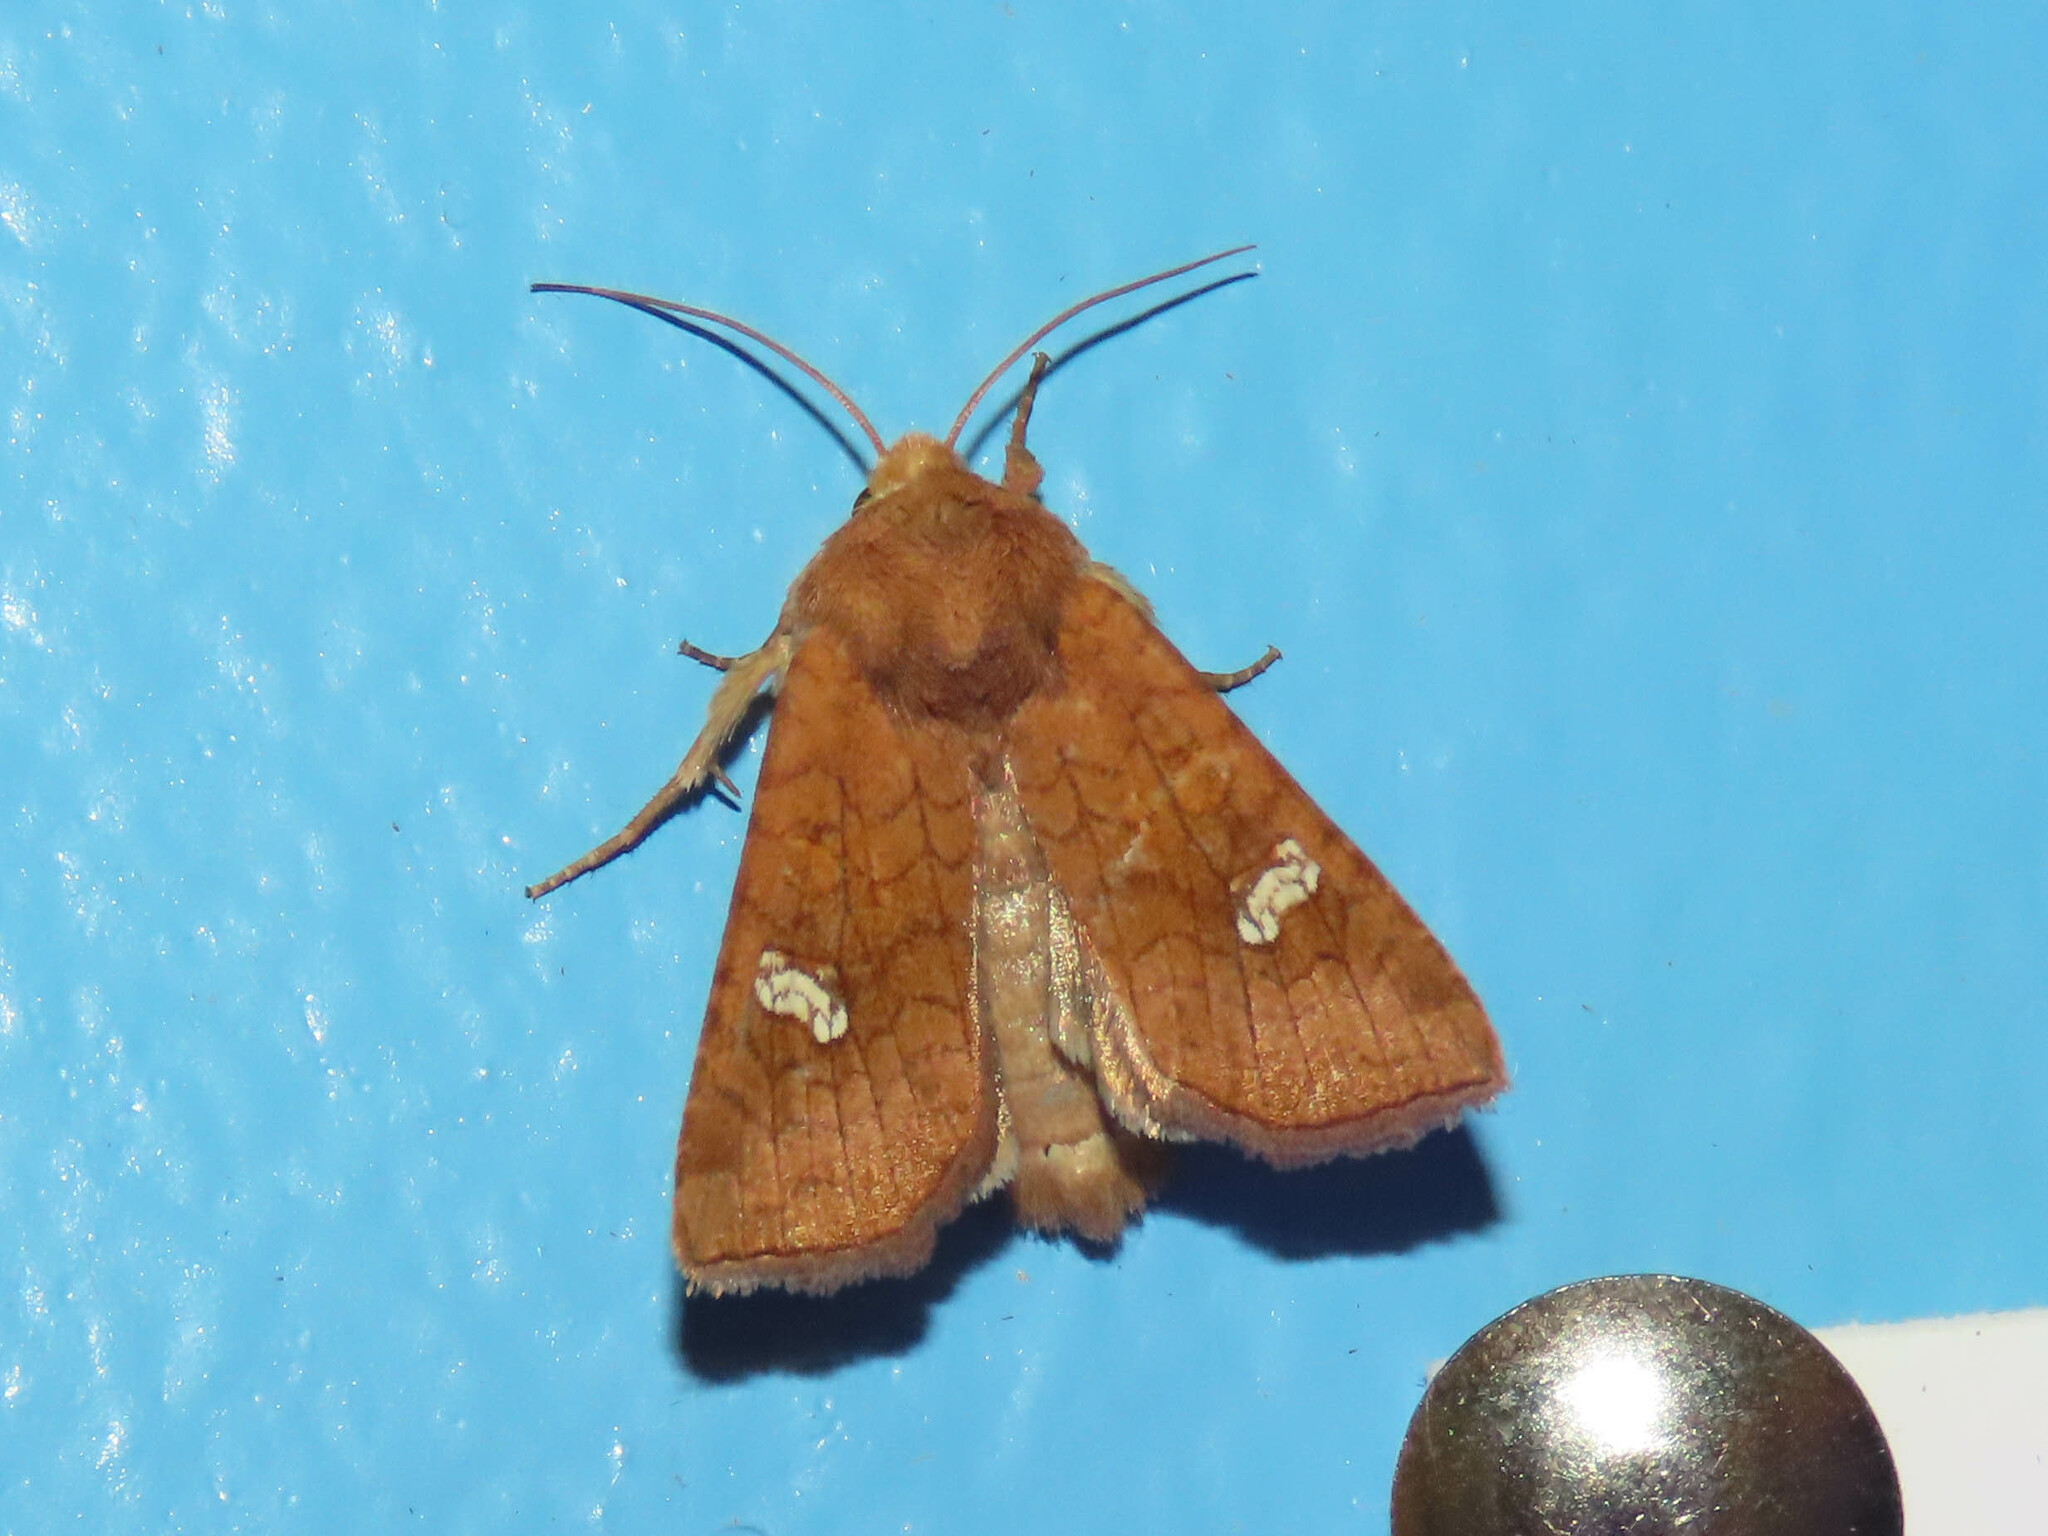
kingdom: Animalia
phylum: Arthropoda
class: Insecta
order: Lepidoptera
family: Noctuidae
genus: Amphipoea
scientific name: Amphipoea americana
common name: American ear moth
